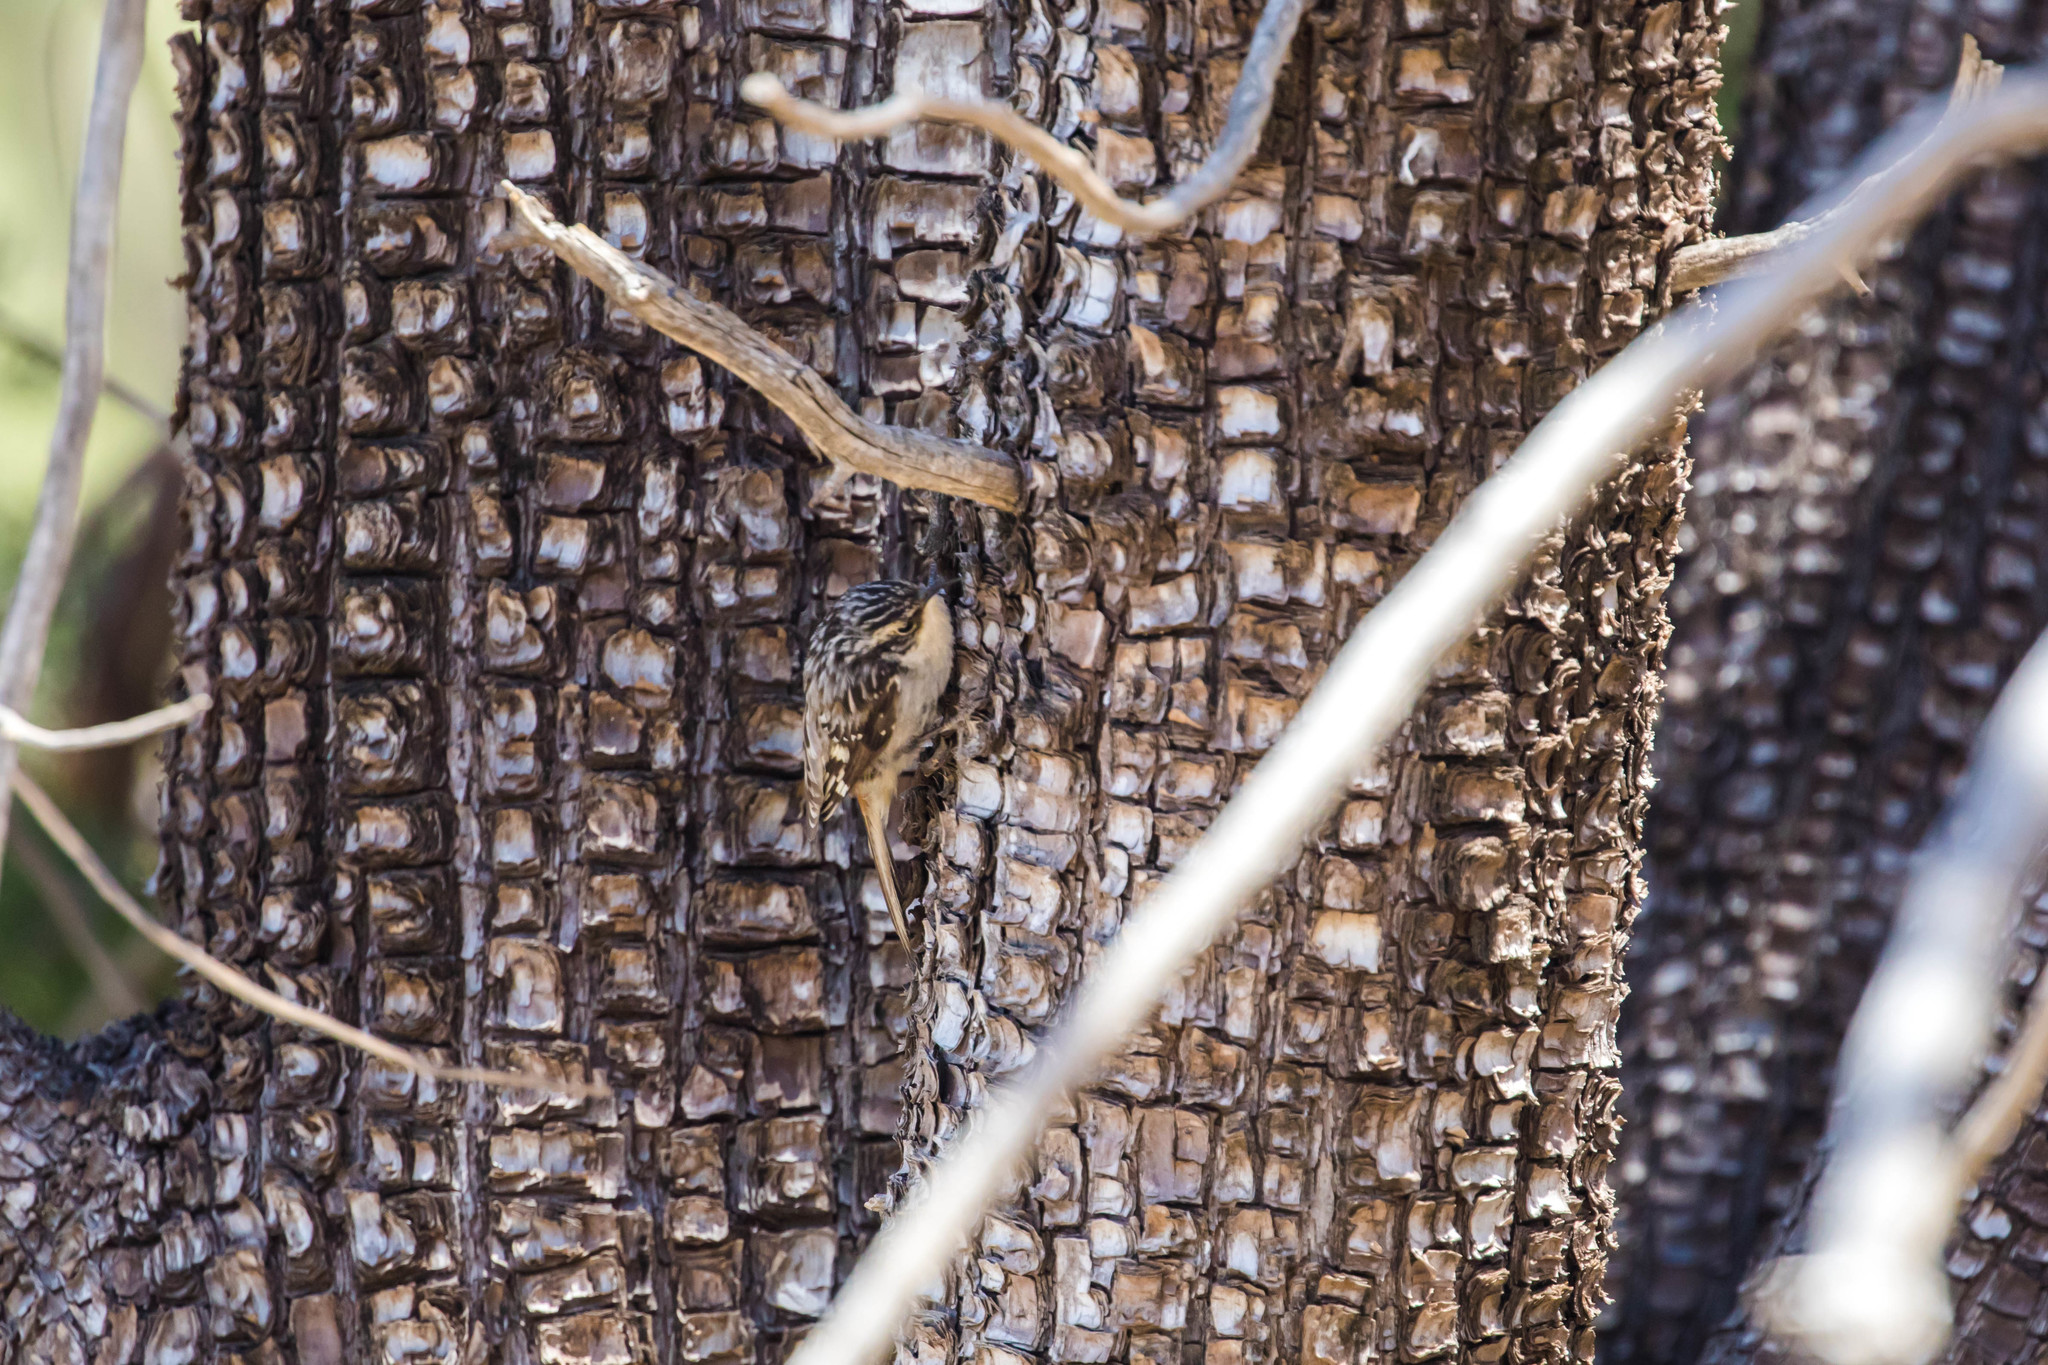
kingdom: Animalia
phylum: Chordata
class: Aves
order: Passeriformes
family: Certhiidae
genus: Certhia
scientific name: Certhia americana
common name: Brown creeper
